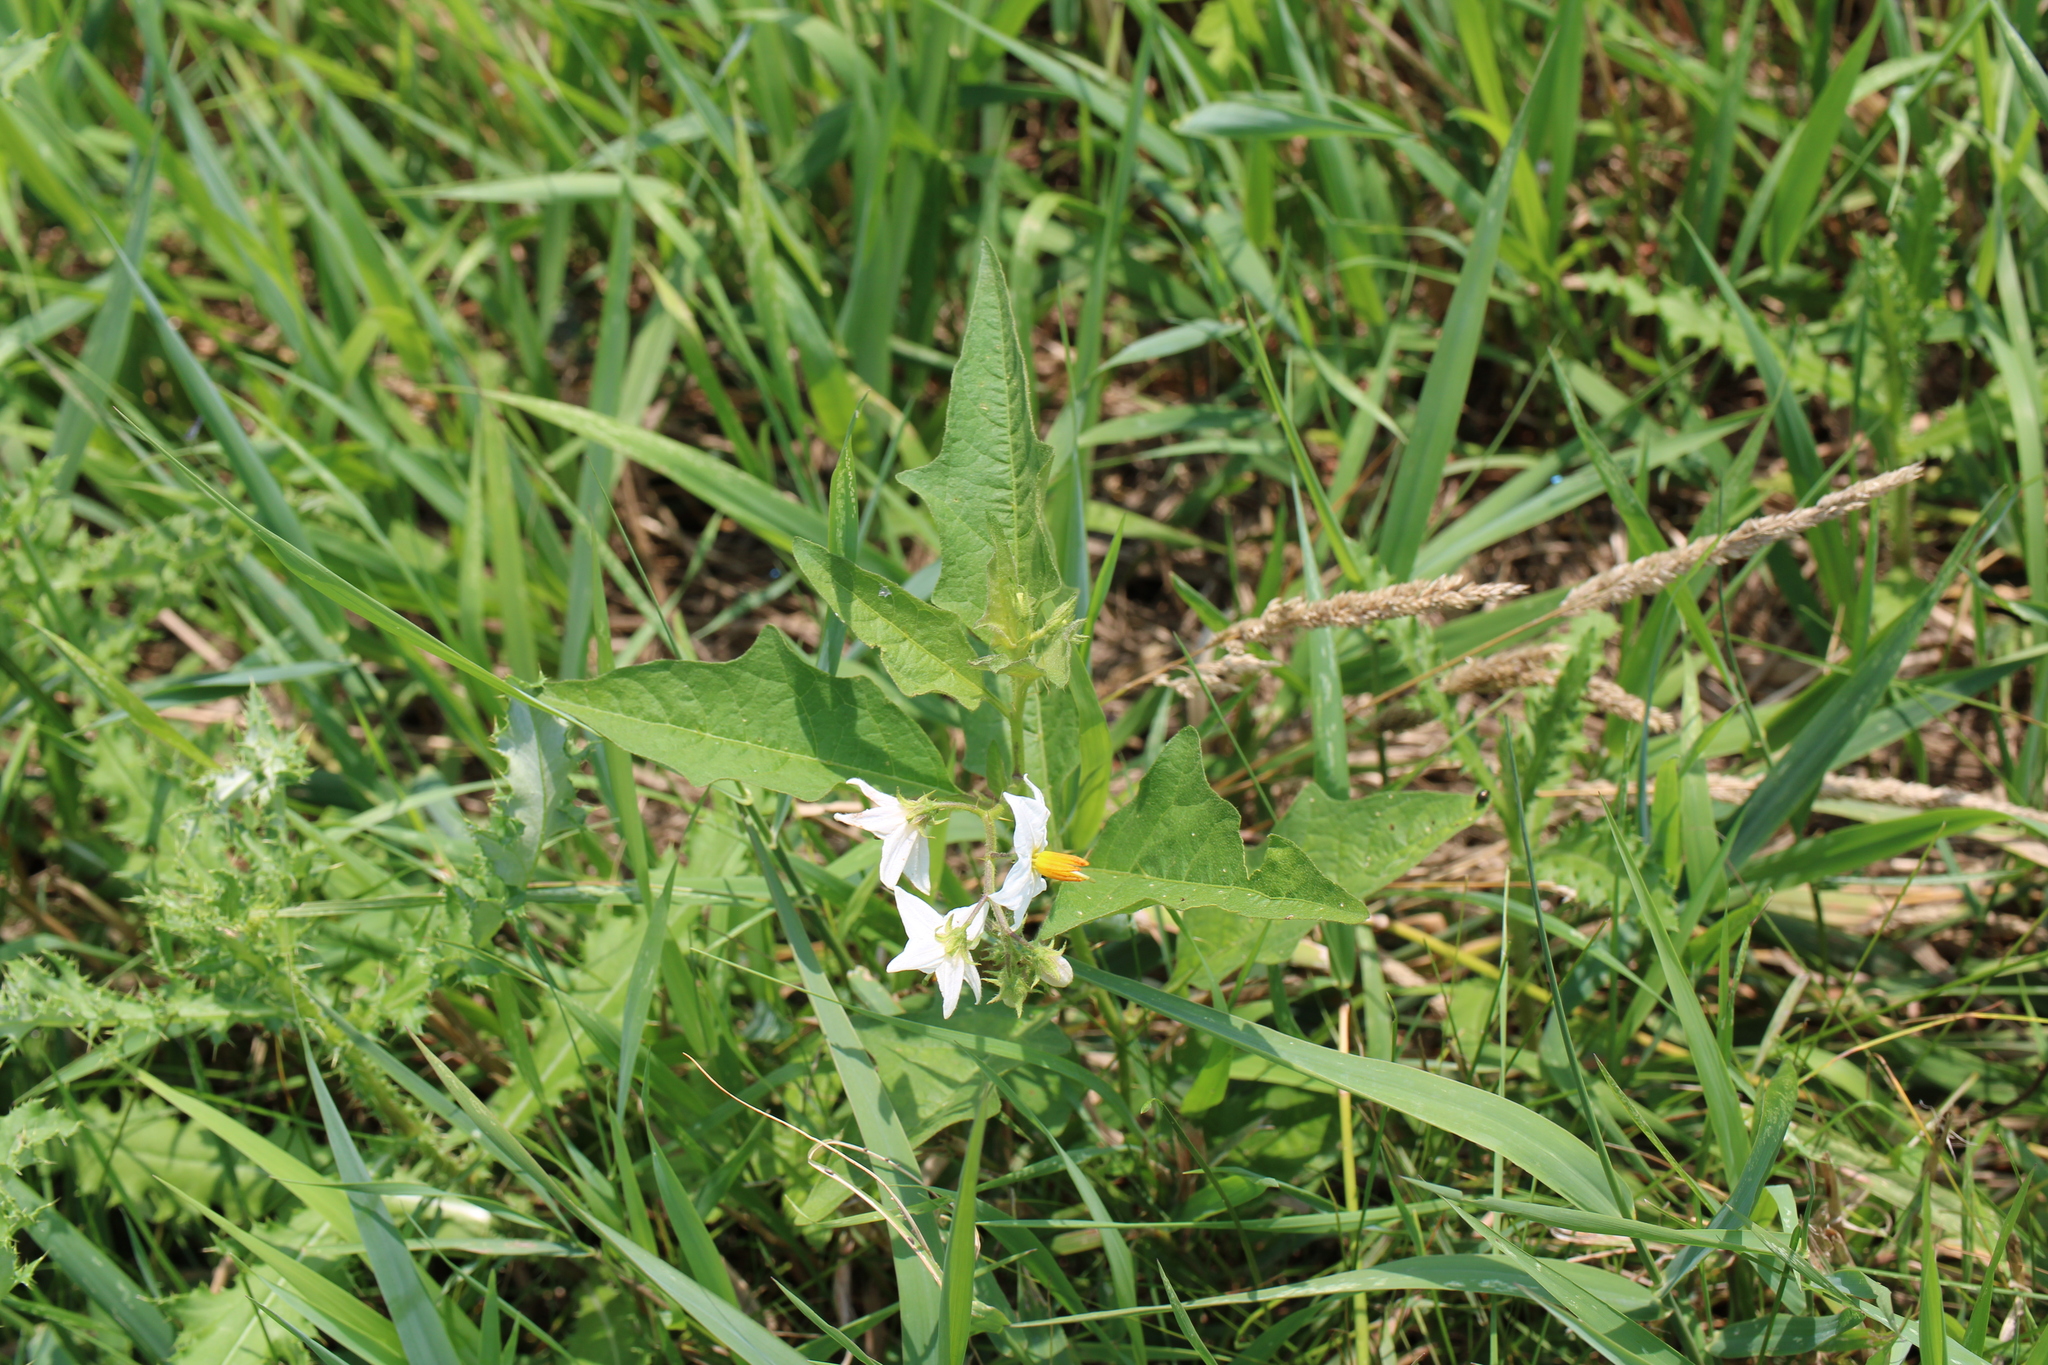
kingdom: Plantae
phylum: Tracheophyta
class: Magnoliopsida
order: Solanales
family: Solanaceae
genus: Solanum
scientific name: Solanum carolinense
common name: Horse-nettle
